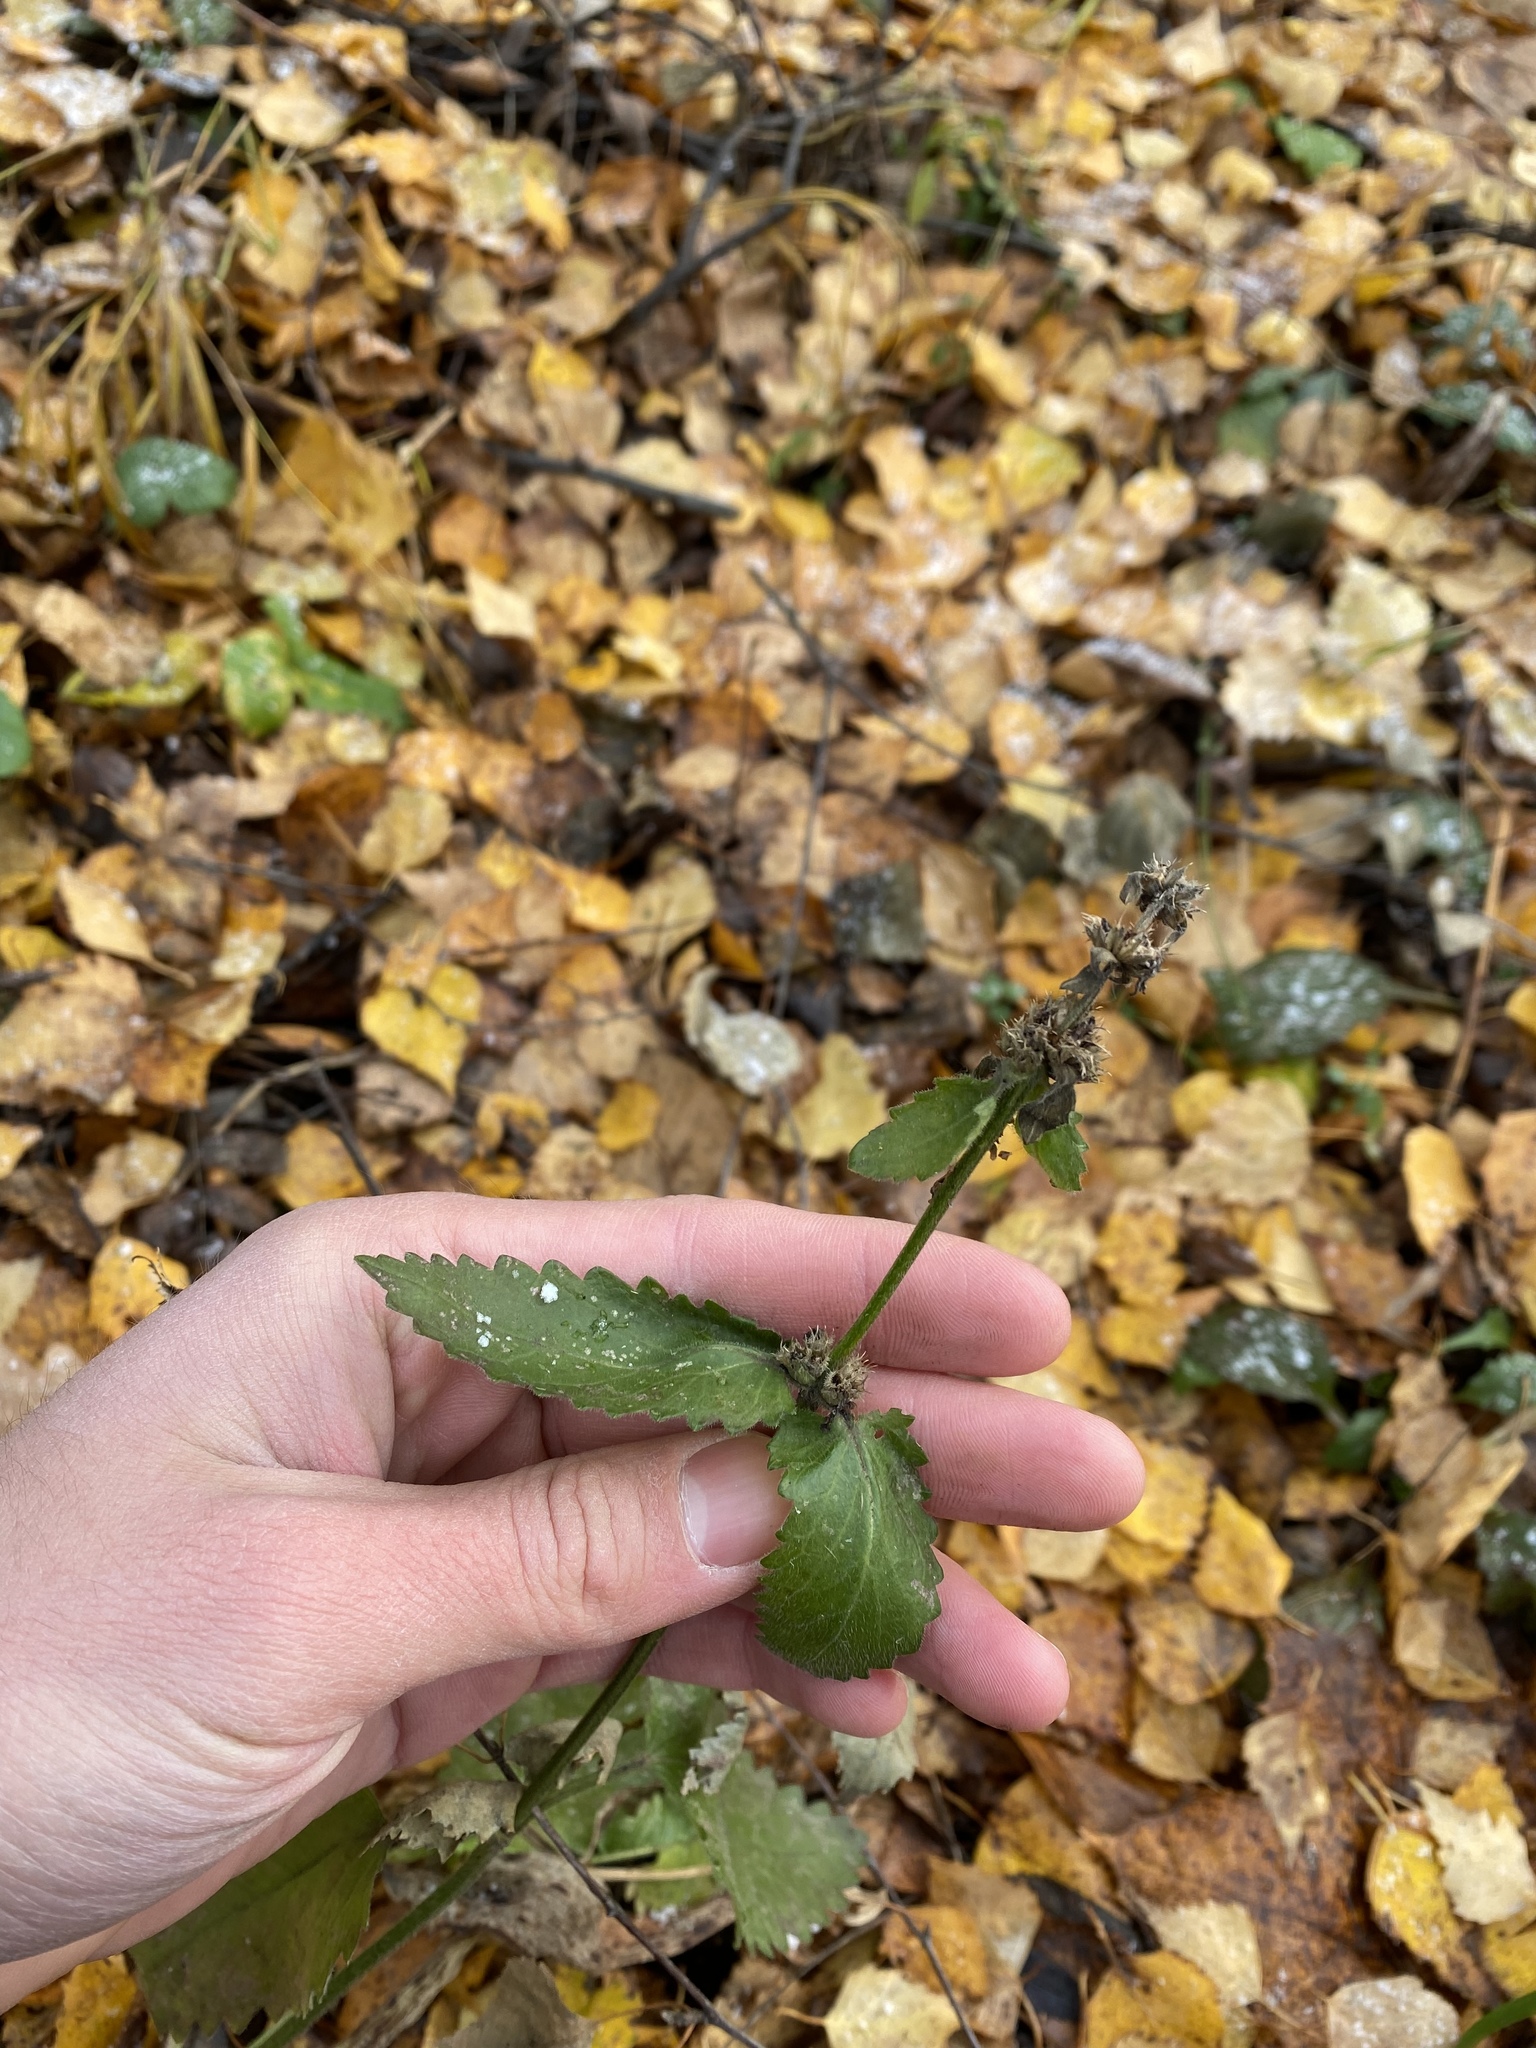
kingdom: Plantae
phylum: Tracheophyta
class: Magnoliopsida
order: Lamiales
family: Lamiaceae
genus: Betonica
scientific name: Betonica officinalis
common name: Bishop's-wort
